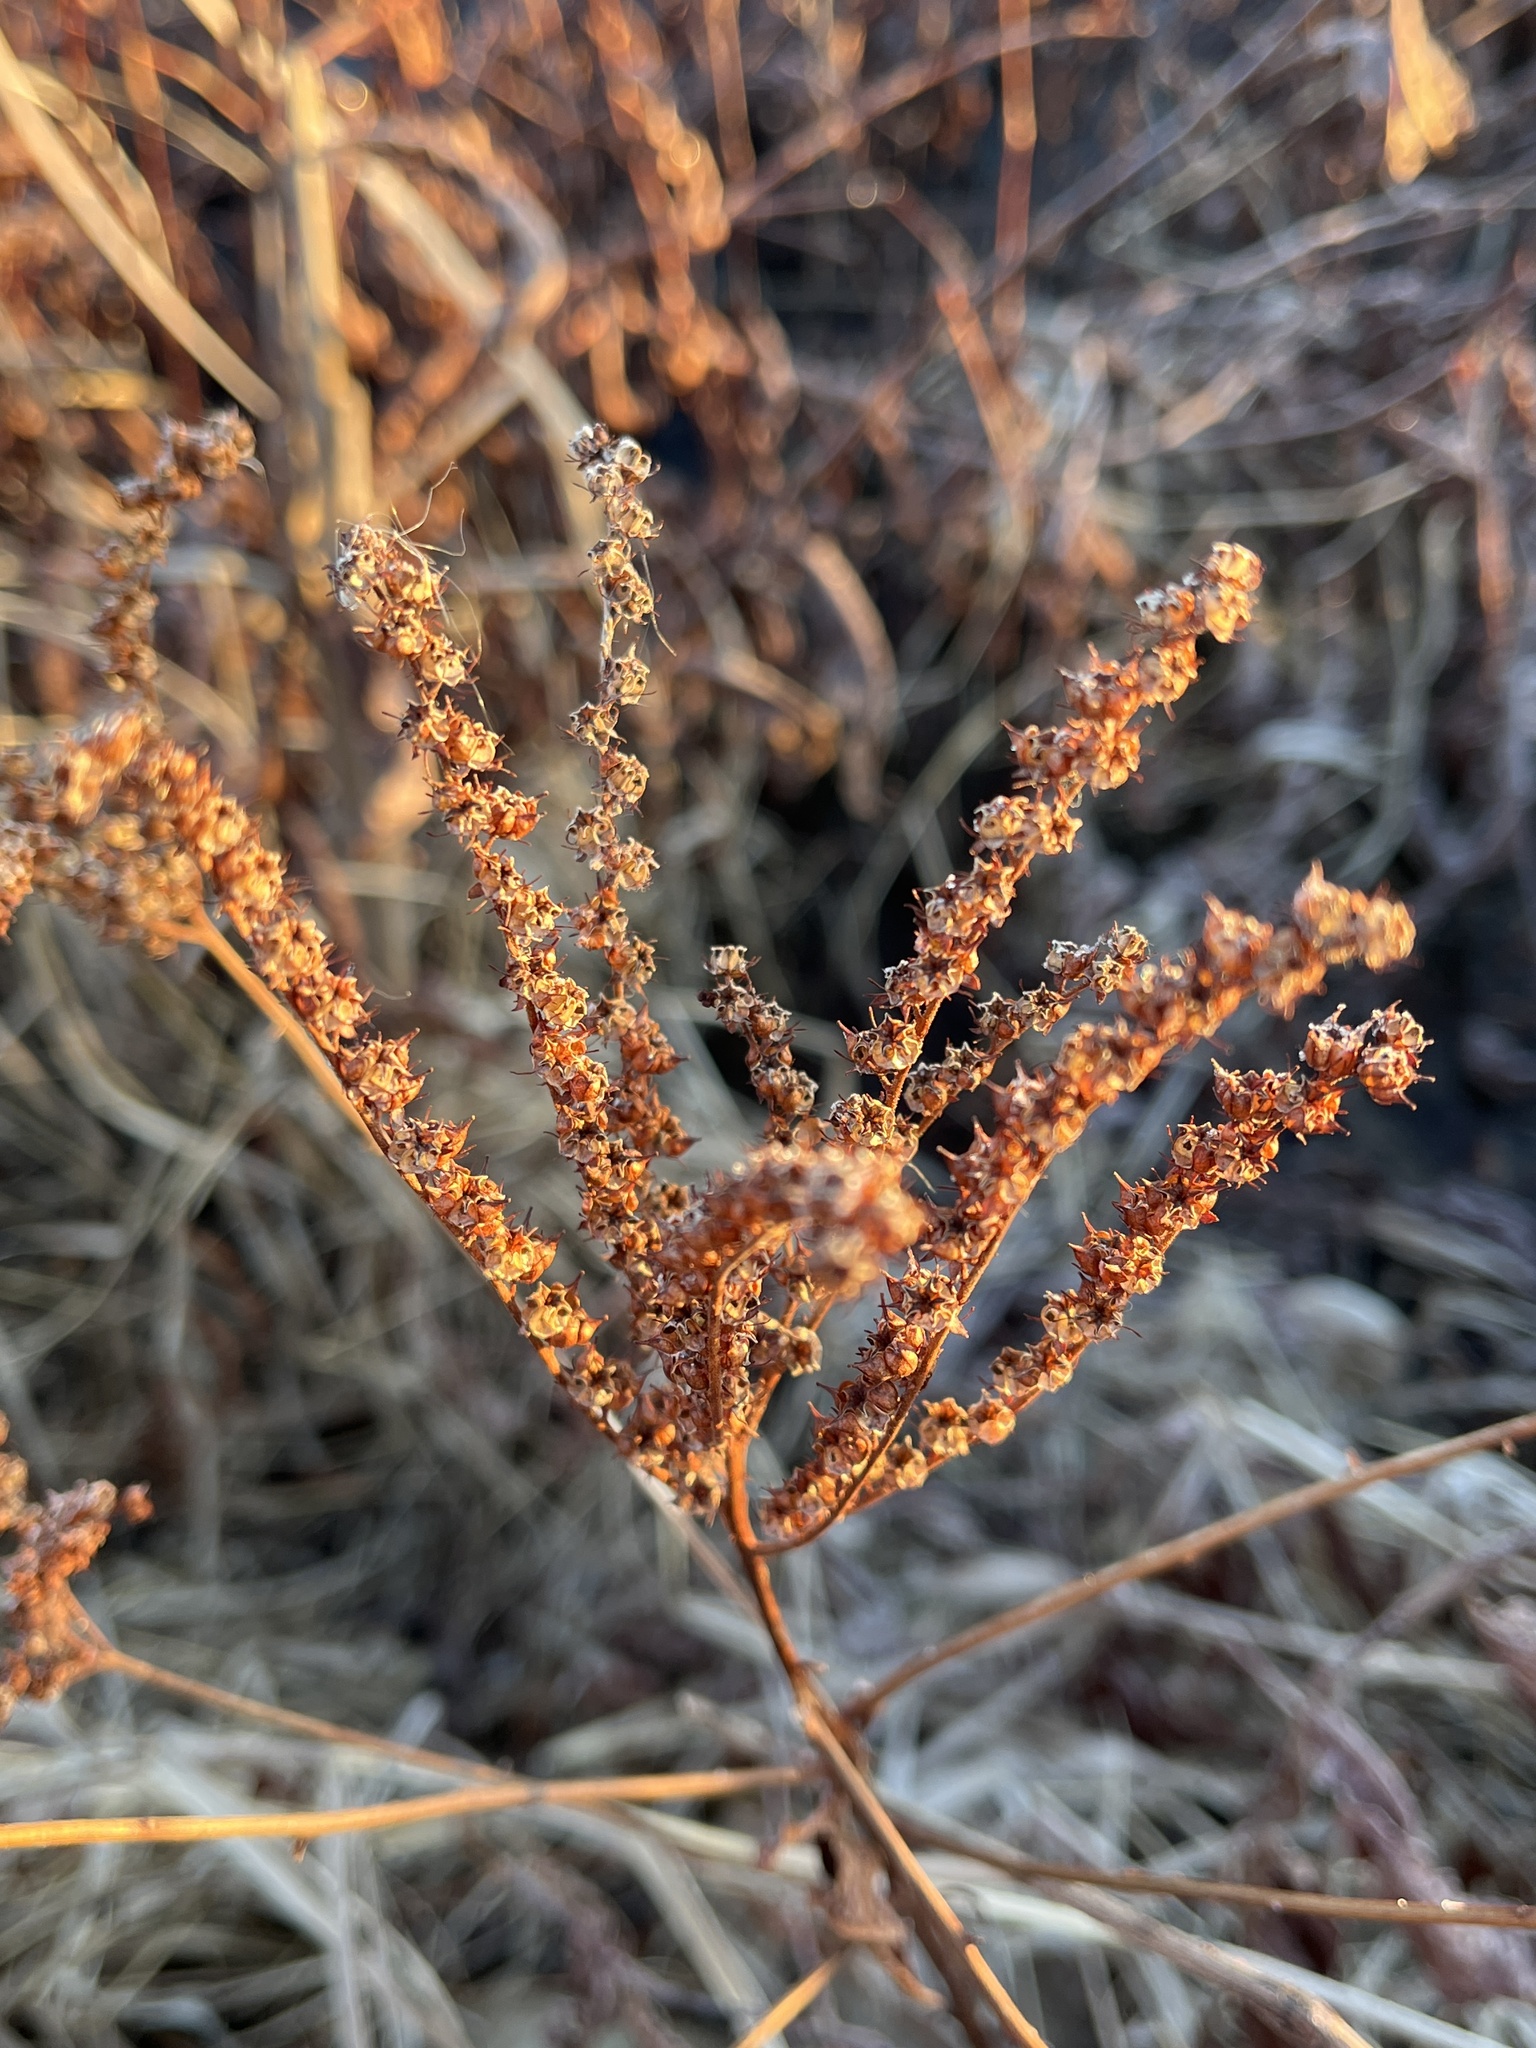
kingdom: Plantae
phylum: Tracheophyta
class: Magnoliopsida
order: Saxifragales
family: Penthoraceae
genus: Penthorum
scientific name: Penthorum sedoides
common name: Ditch stonecrop
